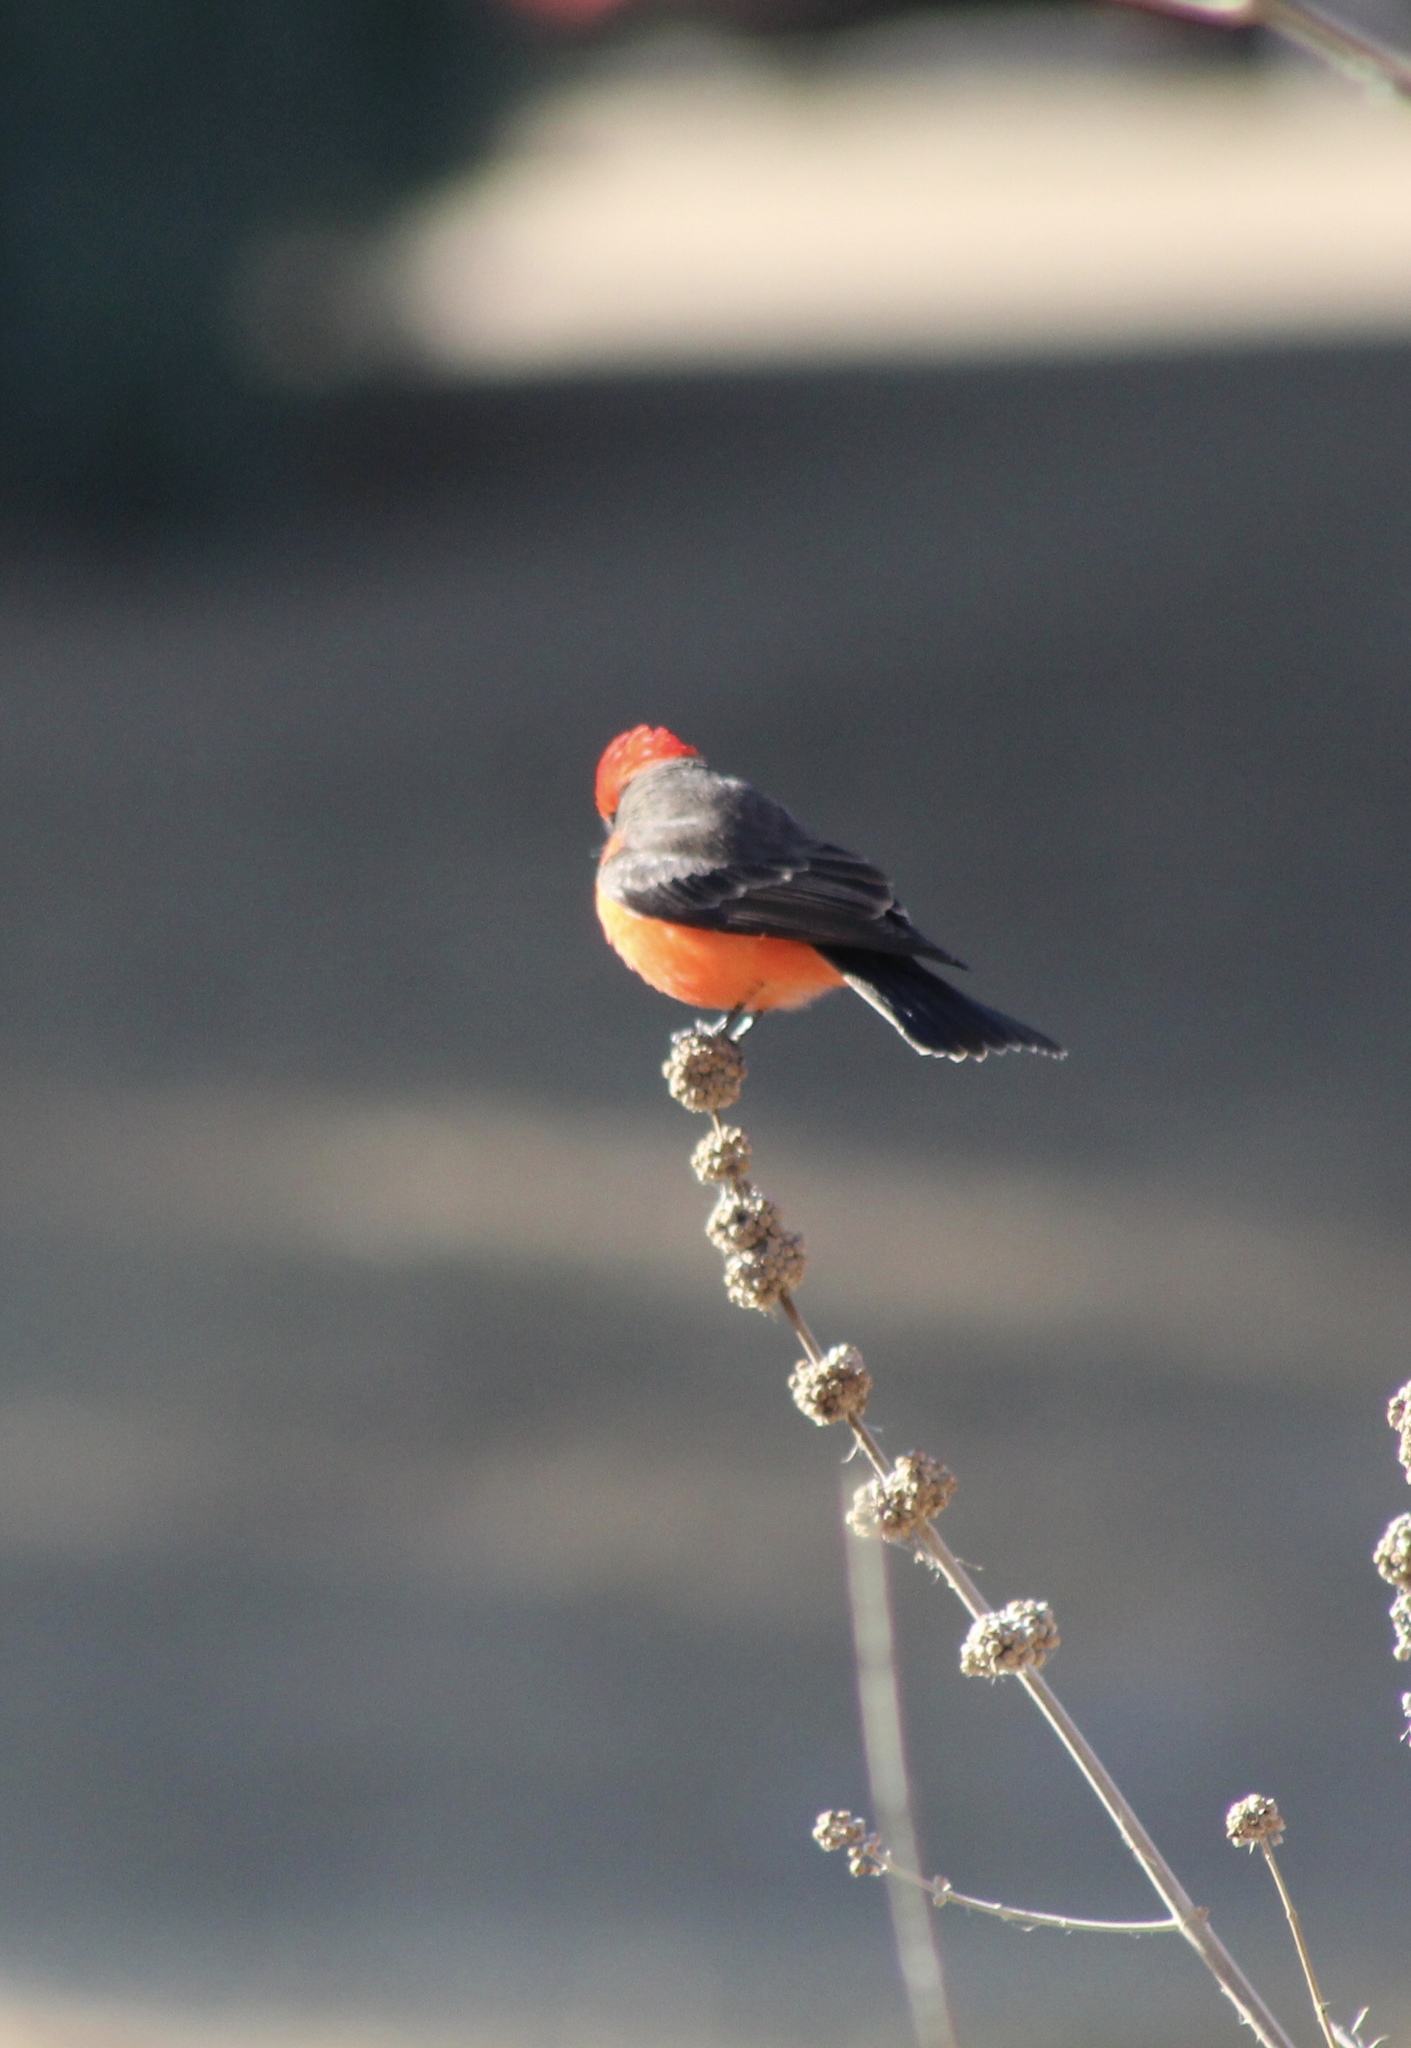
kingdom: Animalia
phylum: Chordata
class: Aves
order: Passeriformes
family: Tyrannidae
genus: Pyrocephalus
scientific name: Pyrocephalus rubinus
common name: Vermilion flycatcher
